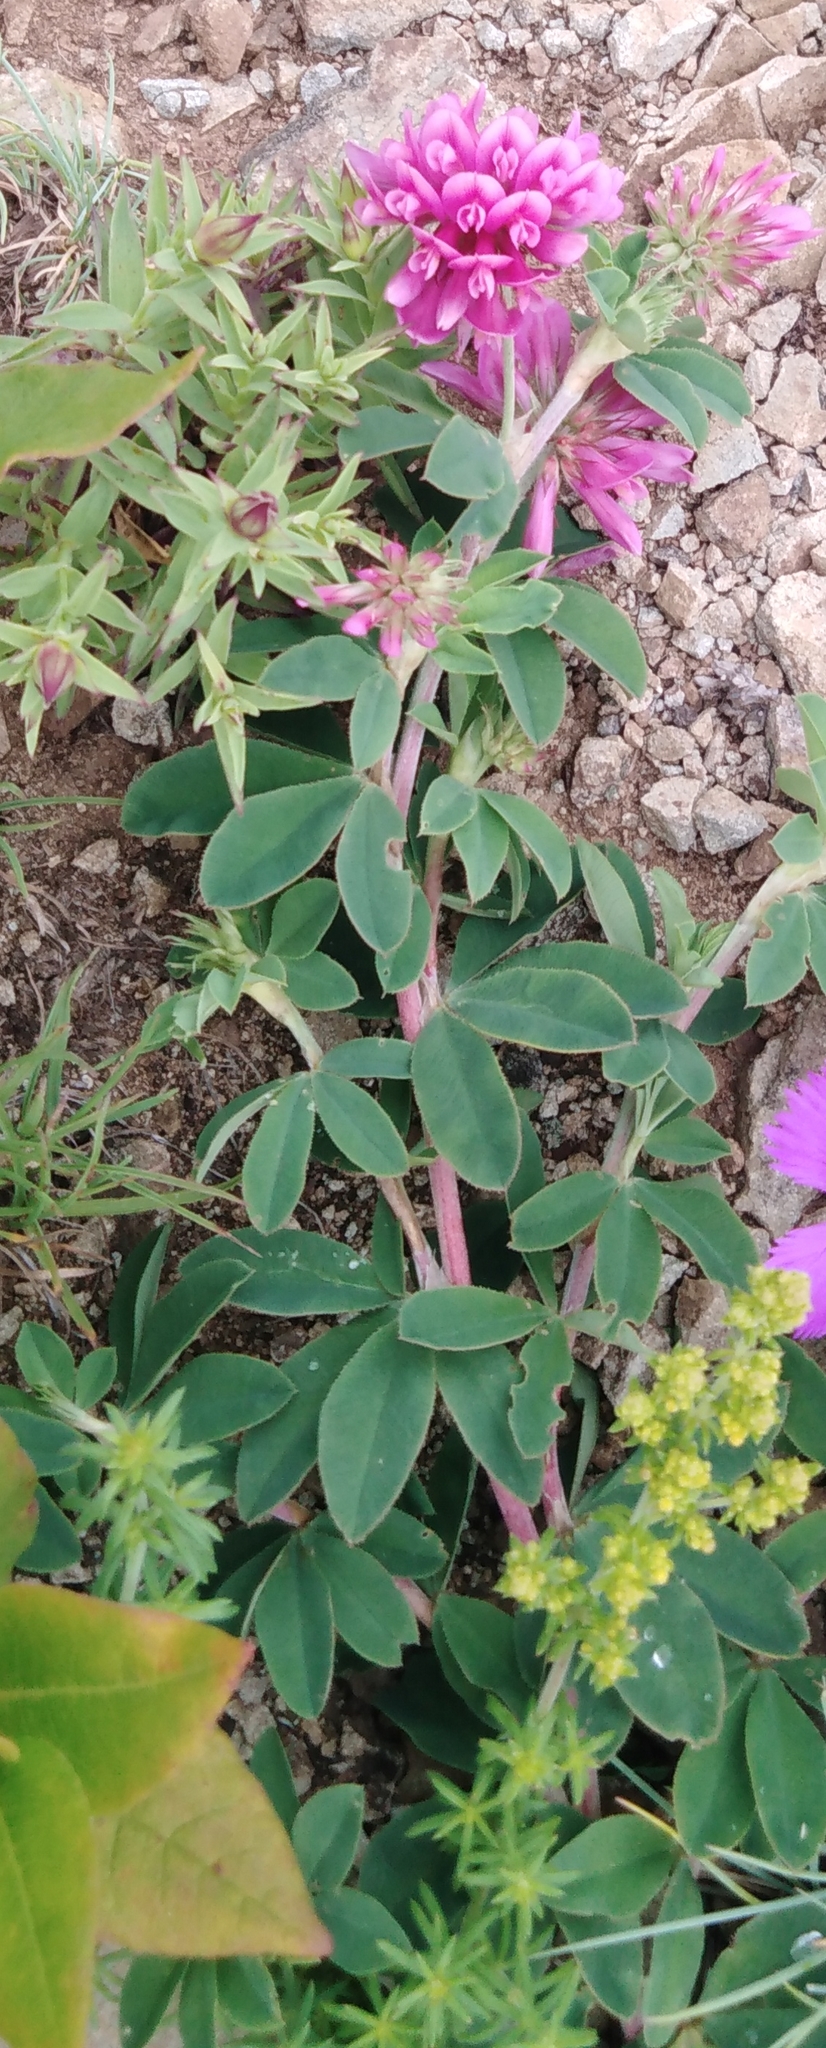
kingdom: Plantae
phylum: Tracheophyta
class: Magnoliopsida
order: Fabales
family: Fabaceae
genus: Trifolium
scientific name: Trifolium lupinaster
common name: Lupine clover
